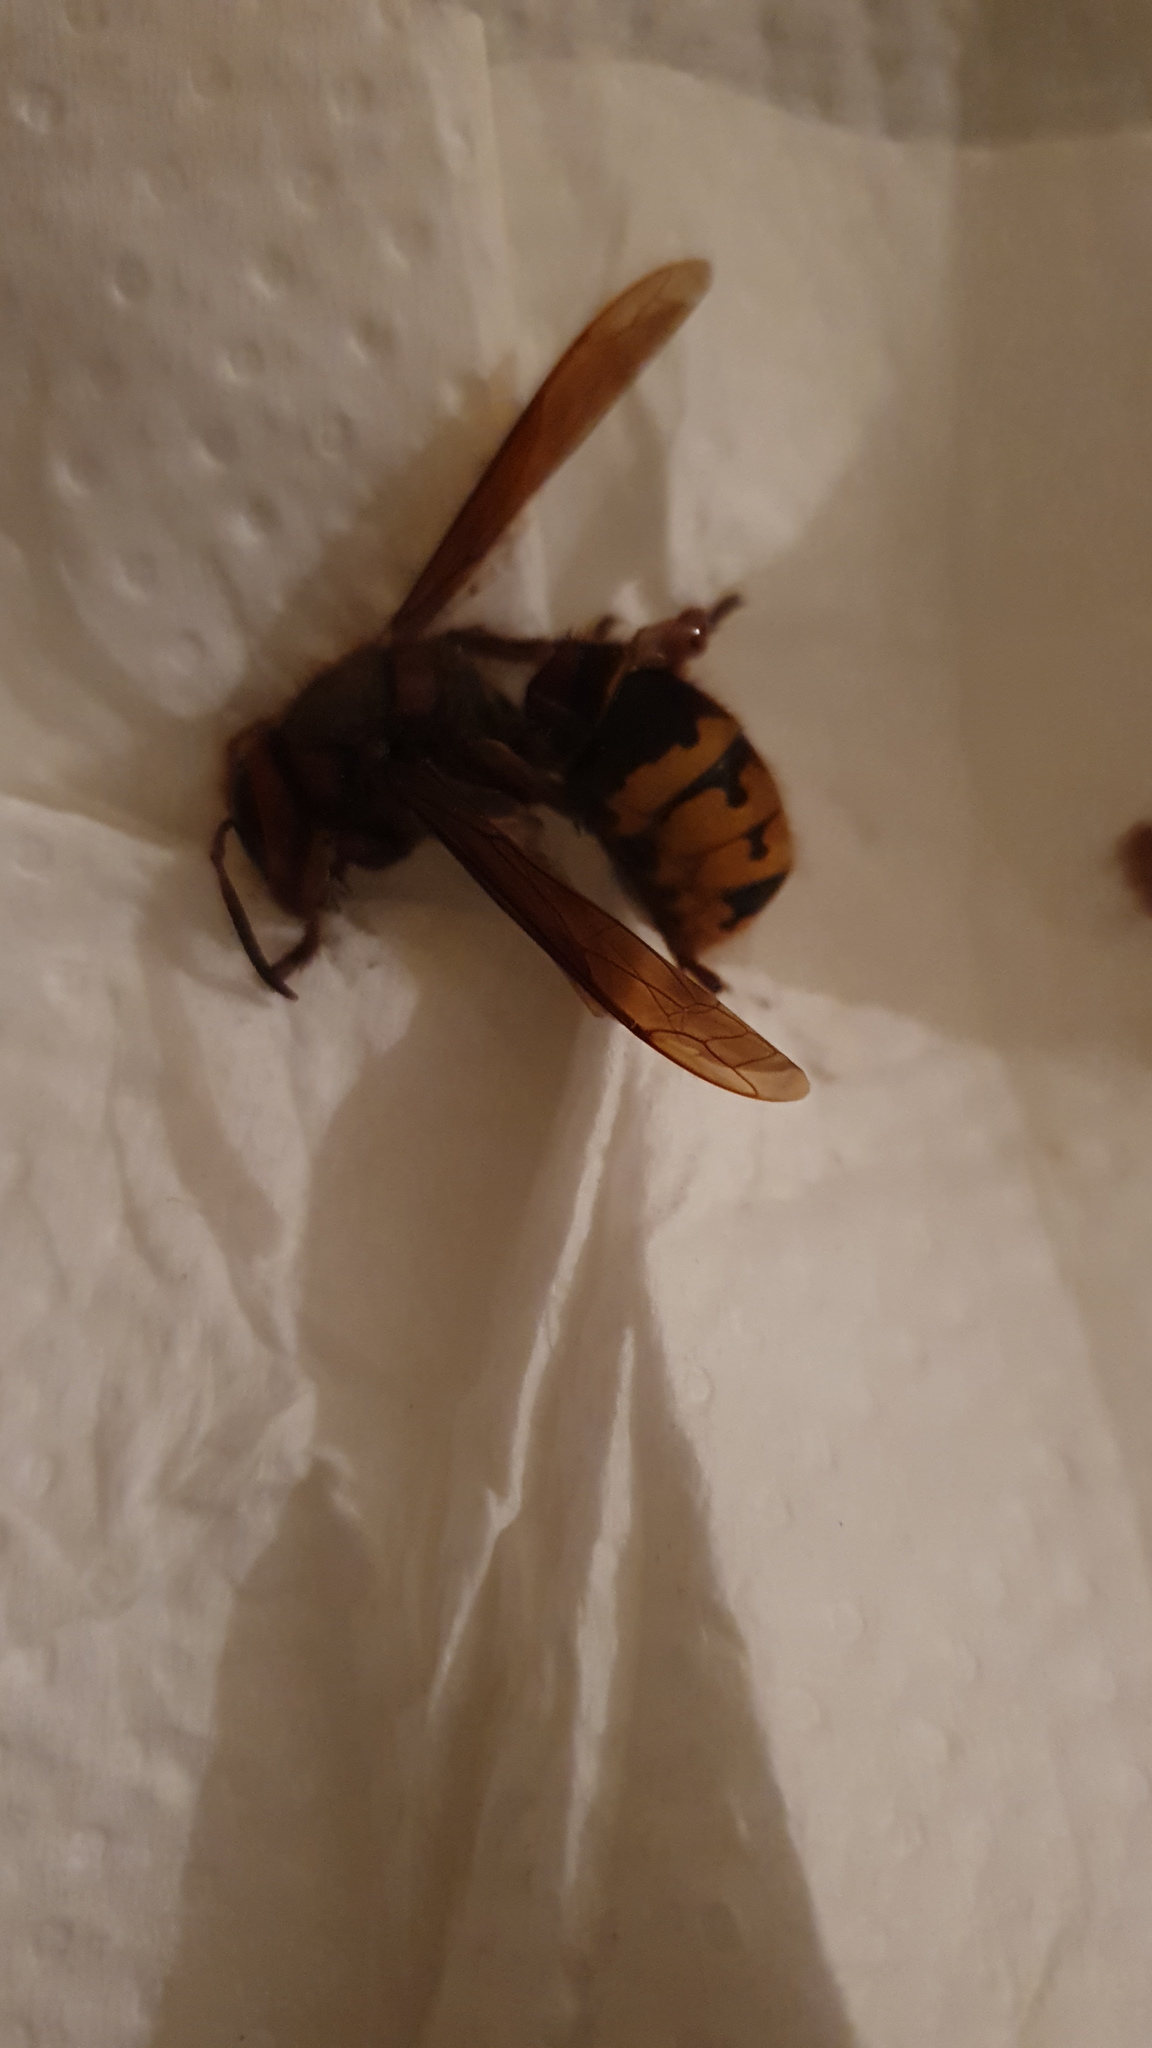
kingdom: Animalia
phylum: Arthropoda
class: Insecta
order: Hymenoptera
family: Vespidae
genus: Vespa
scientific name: Vespa crabro
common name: Hornet
